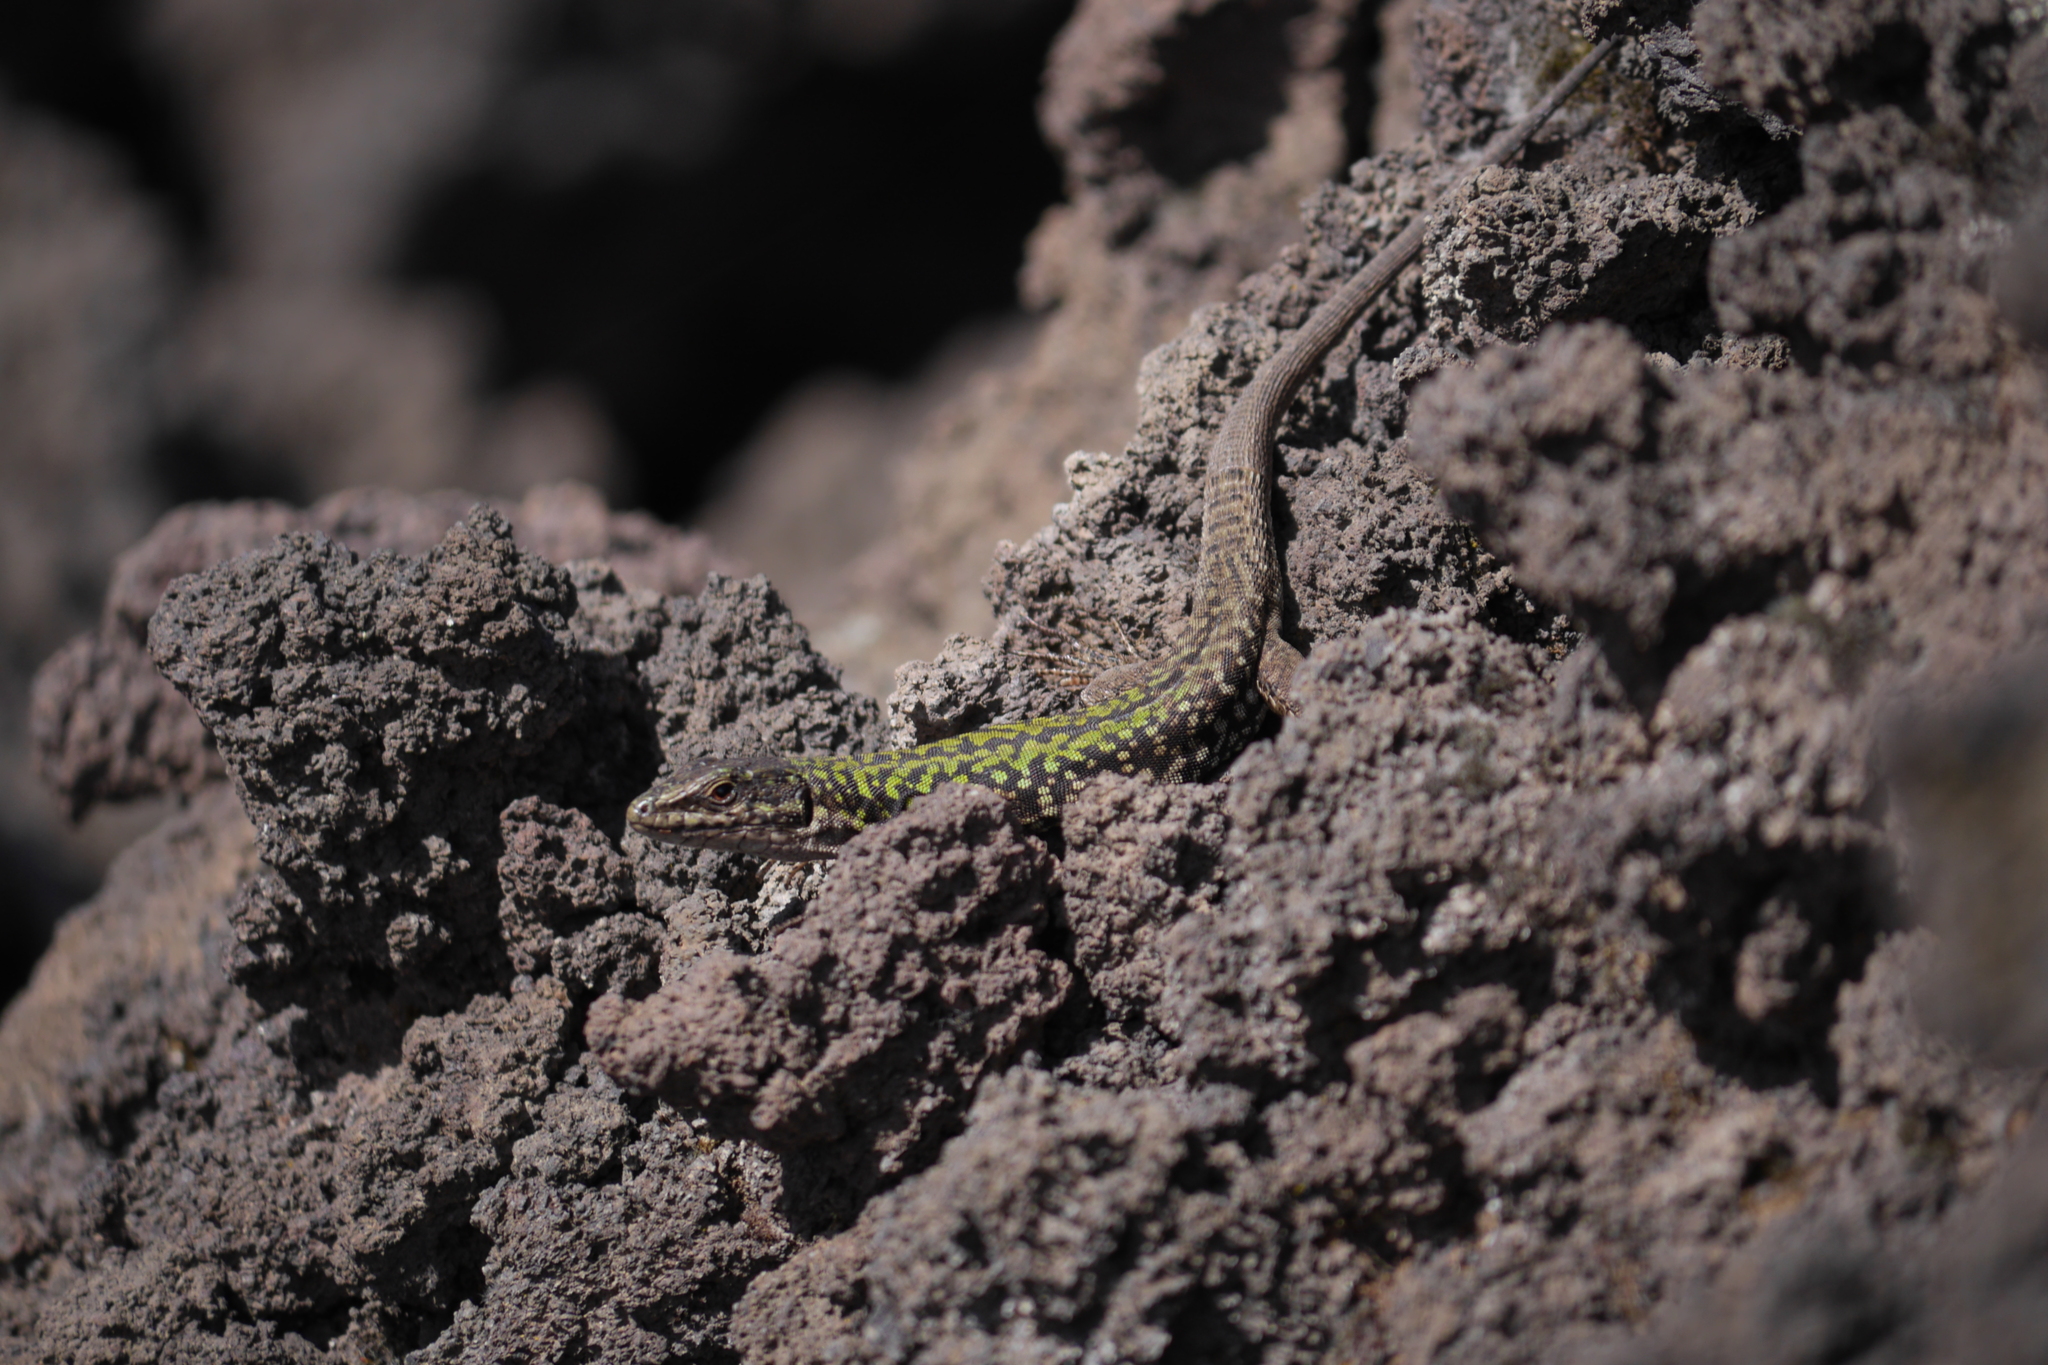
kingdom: Animalia
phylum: Chordata
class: Squamata
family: Lacertidae
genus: Podarcis
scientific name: Podarcis siculus
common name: Italian wall lizard
